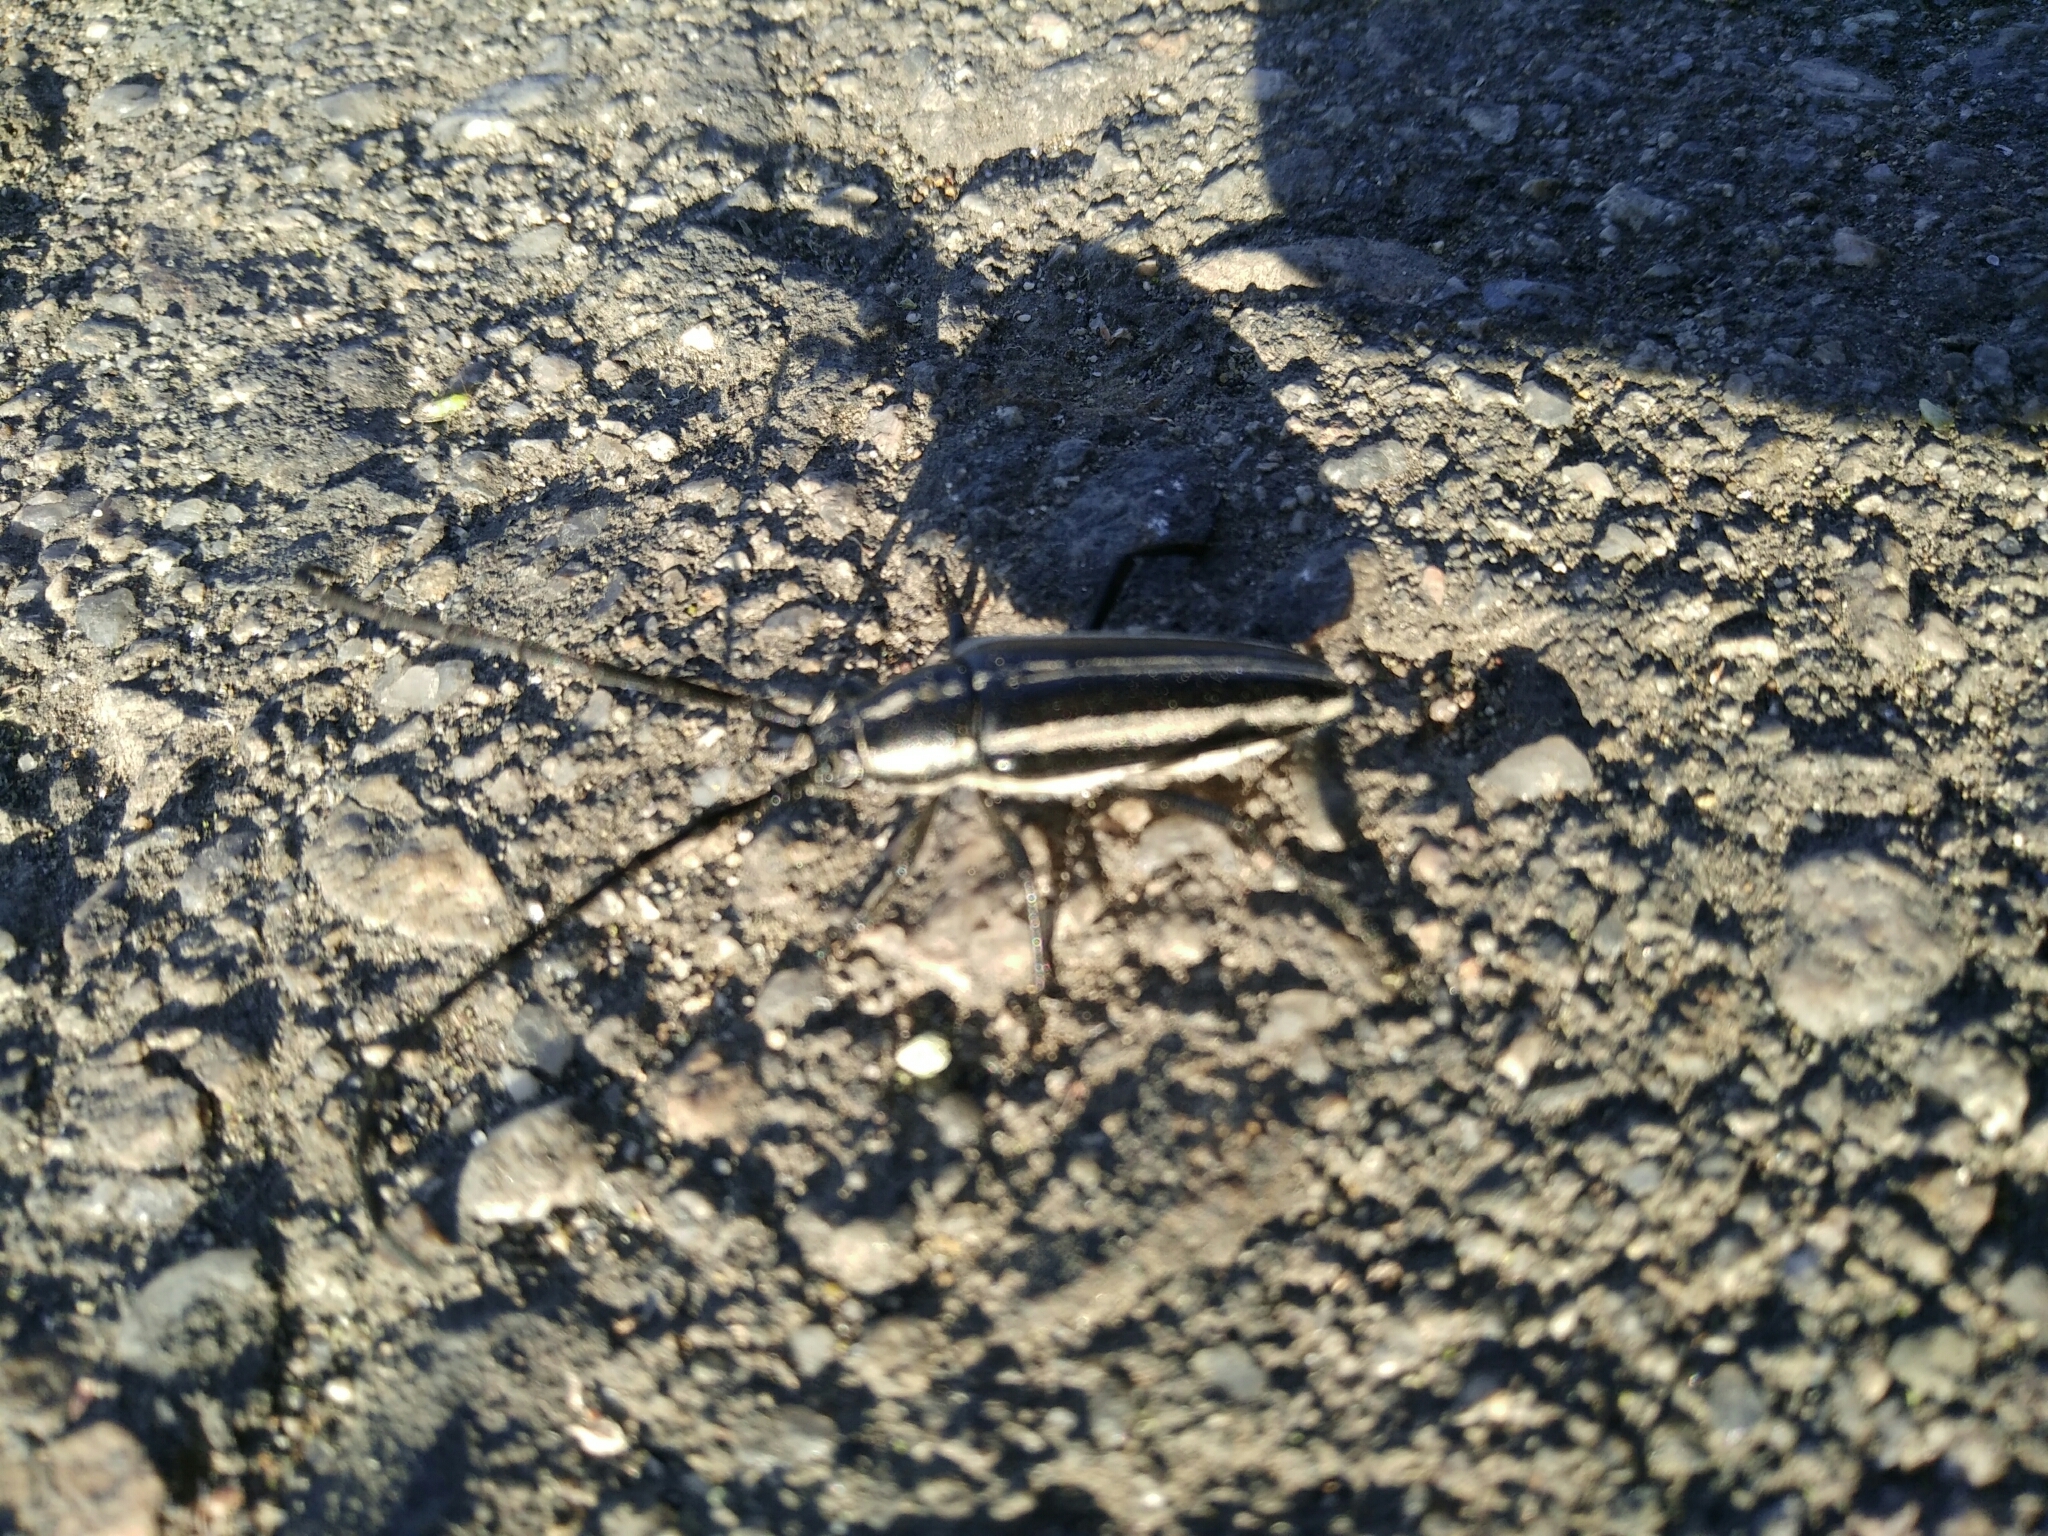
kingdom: Animalia
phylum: Arthropoda
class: Insecta
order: Coleoptera
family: Cerambycidae
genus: Sphaenothecus
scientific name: Sphaenothecus trilineatus
